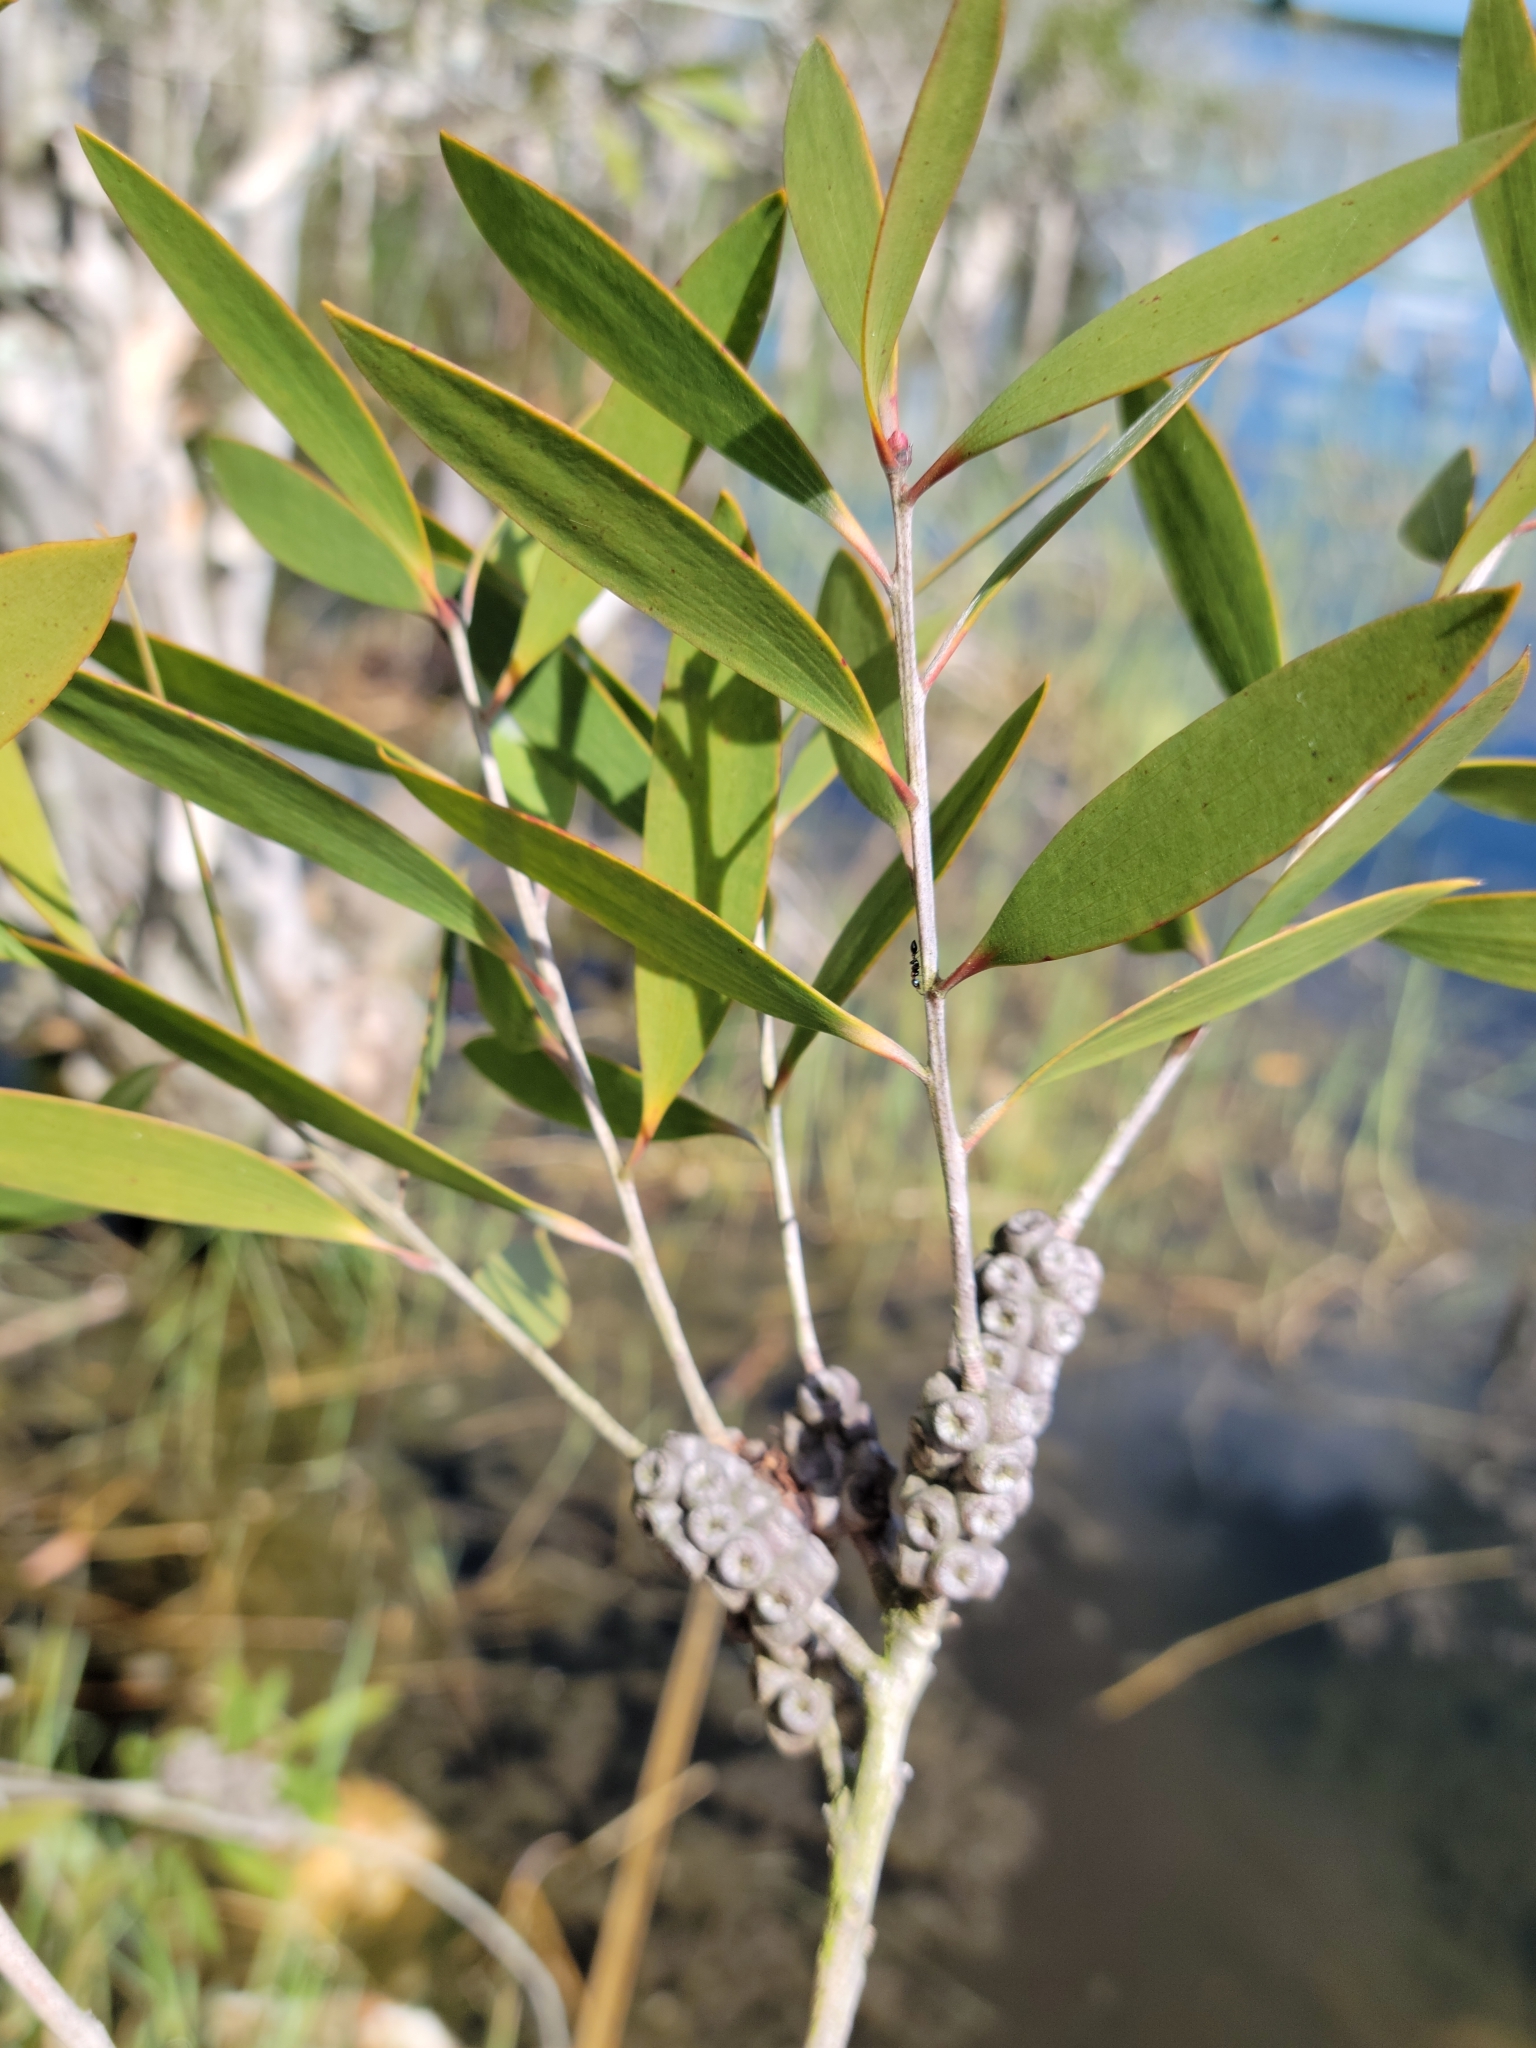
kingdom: Plantae
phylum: Tracheophyta
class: Magnoliopsida
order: Myrtales
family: Myrtaceae
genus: Melaleuca
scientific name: Melaleuca quinquenervia
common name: Punktree
